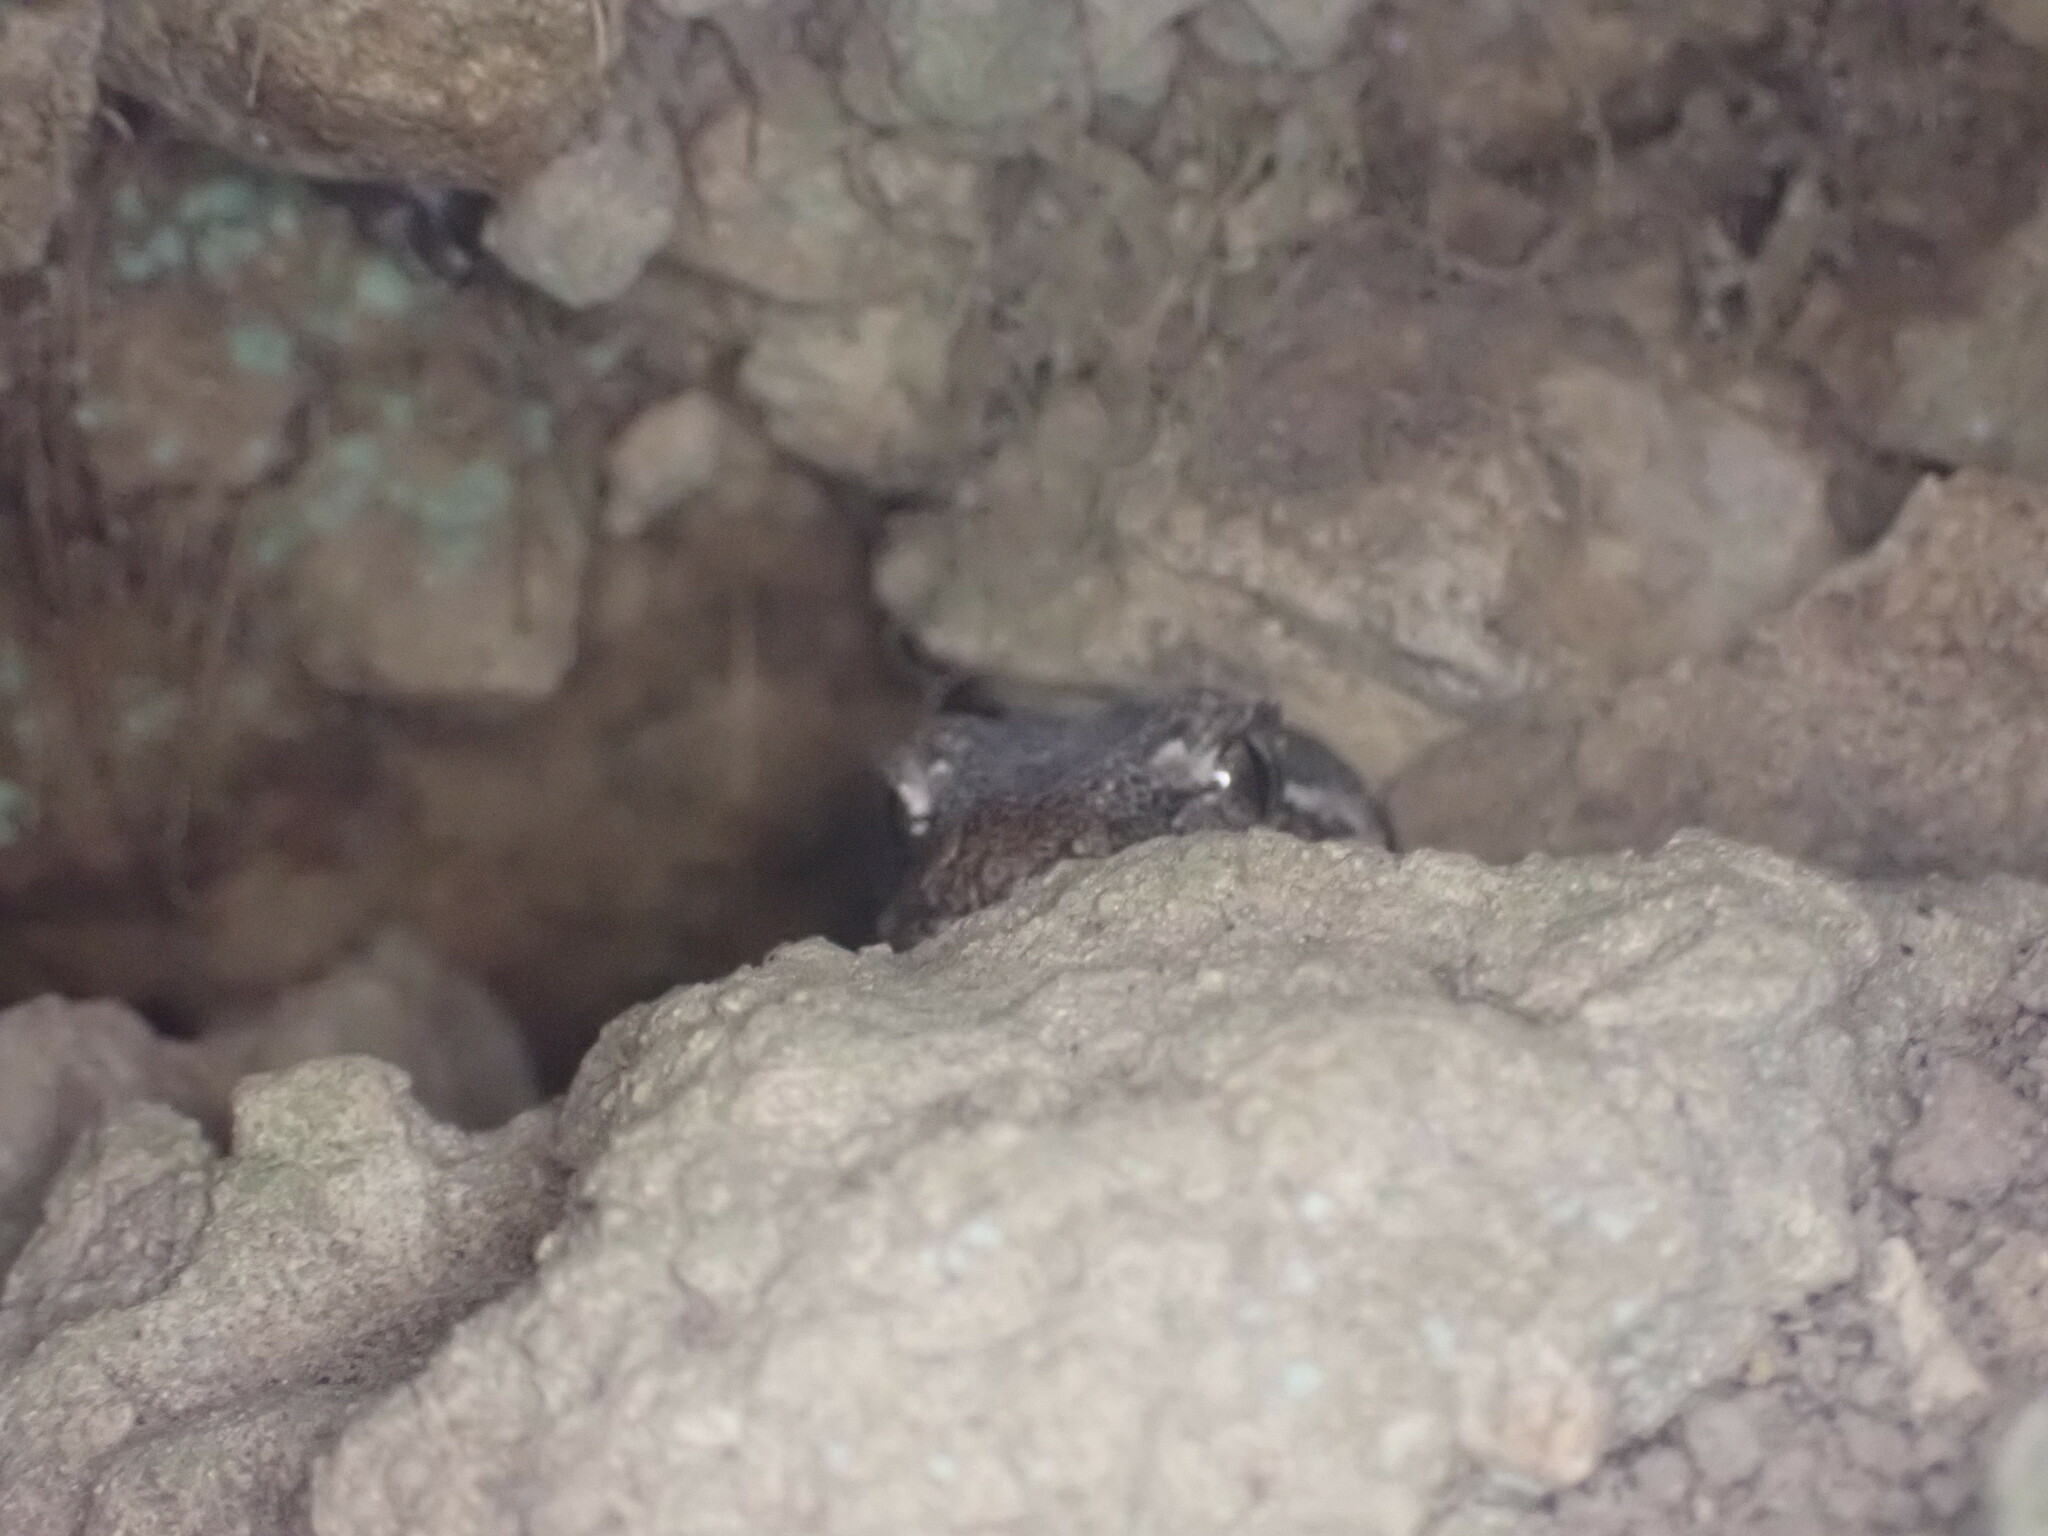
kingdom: Animalia
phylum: Chordata
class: Squamata
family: Diplodactylidae
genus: Mokopirirakau
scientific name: Mokopirirakau
